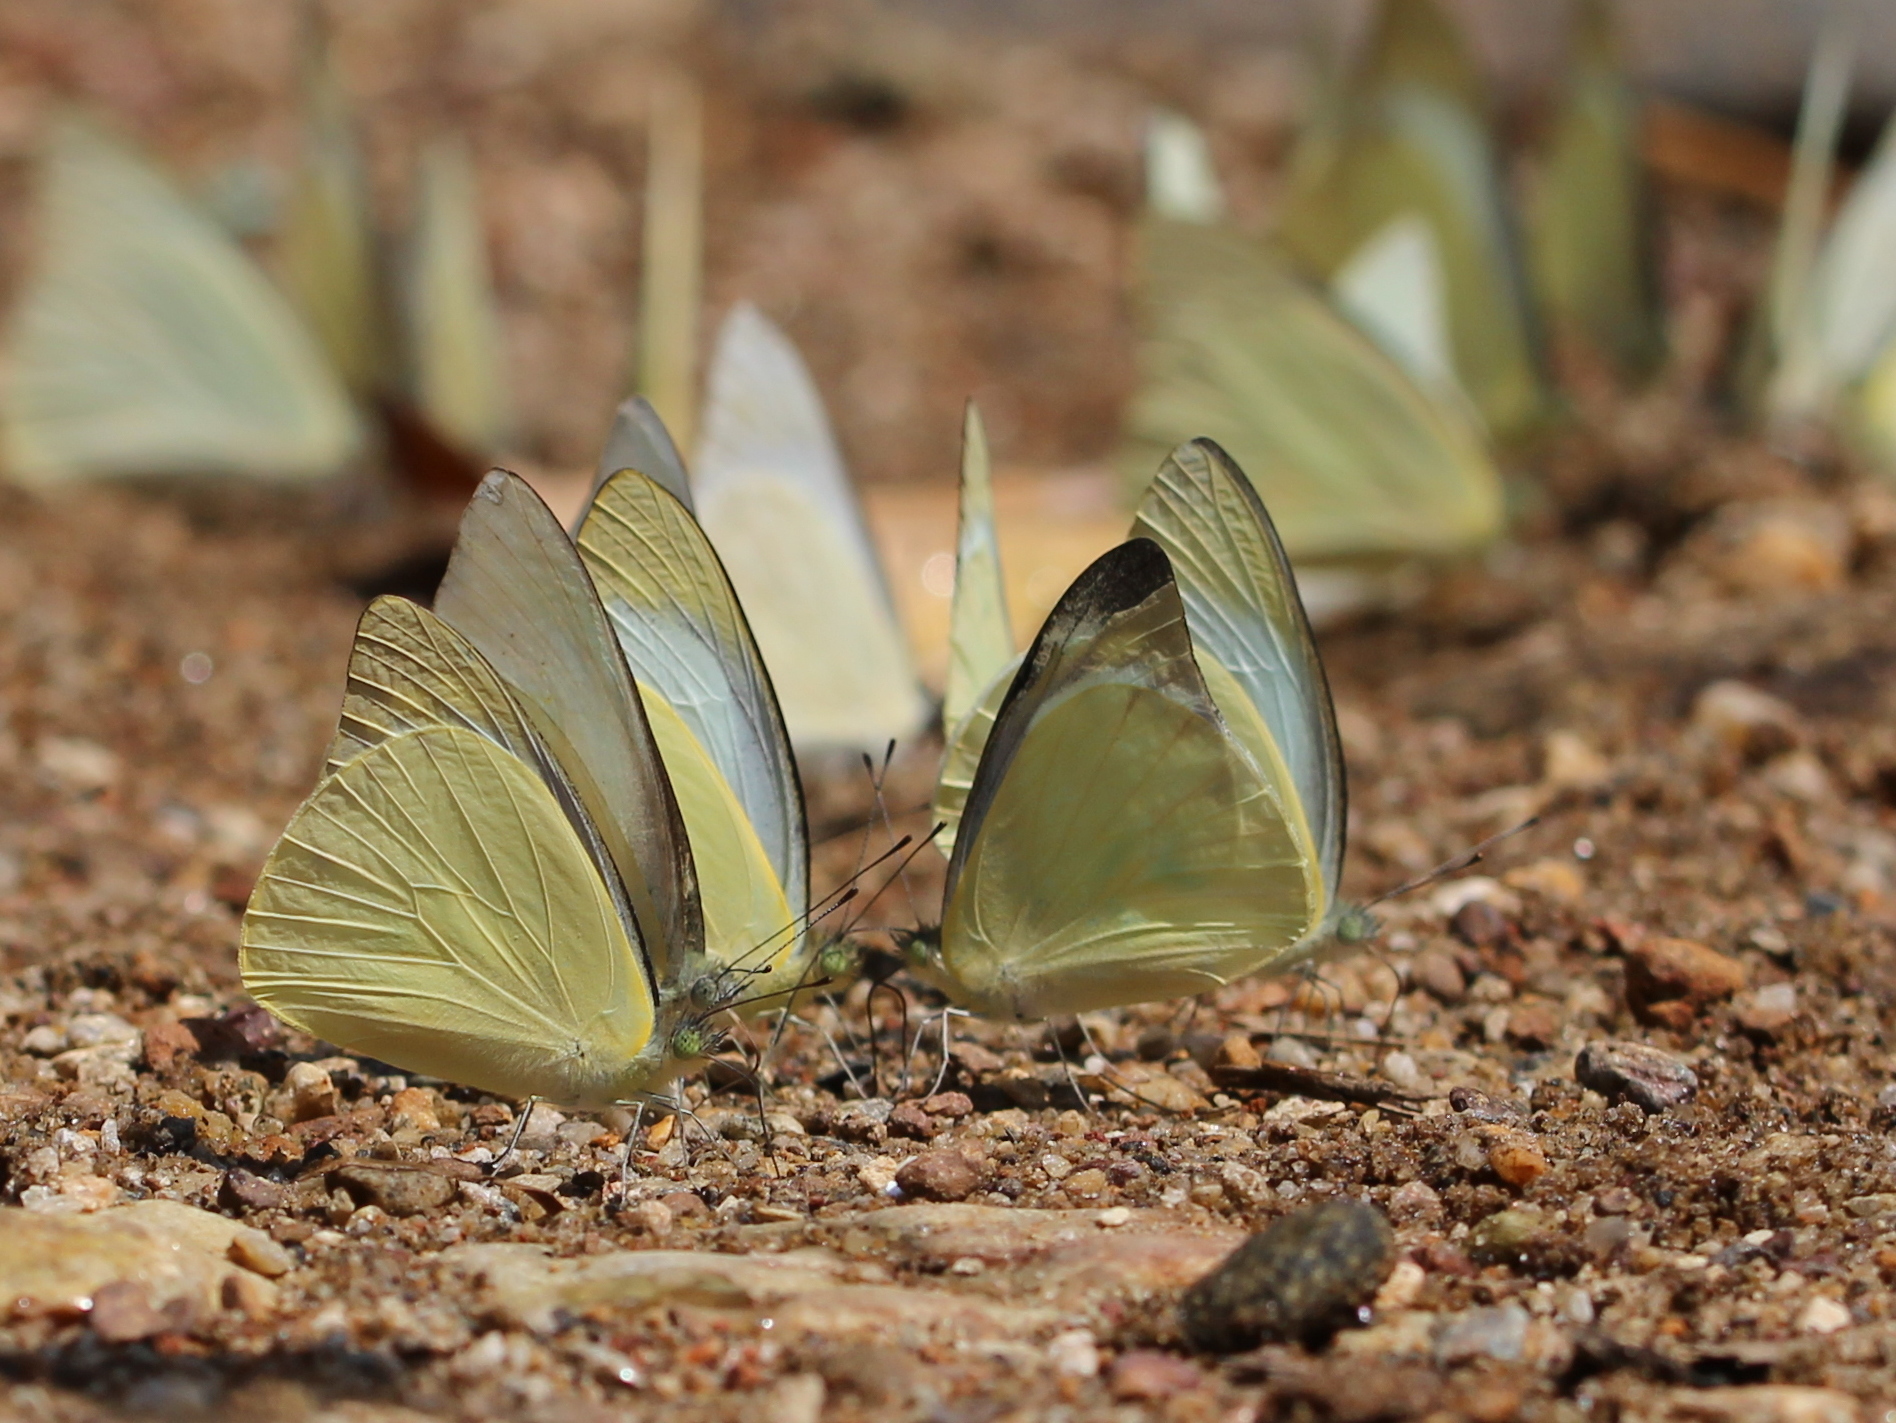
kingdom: Animalia
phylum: Arthropoda
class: Insecta
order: Lepidoptera
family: Pieridae
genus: Appias
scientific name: Appias albina
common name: Common albatross
